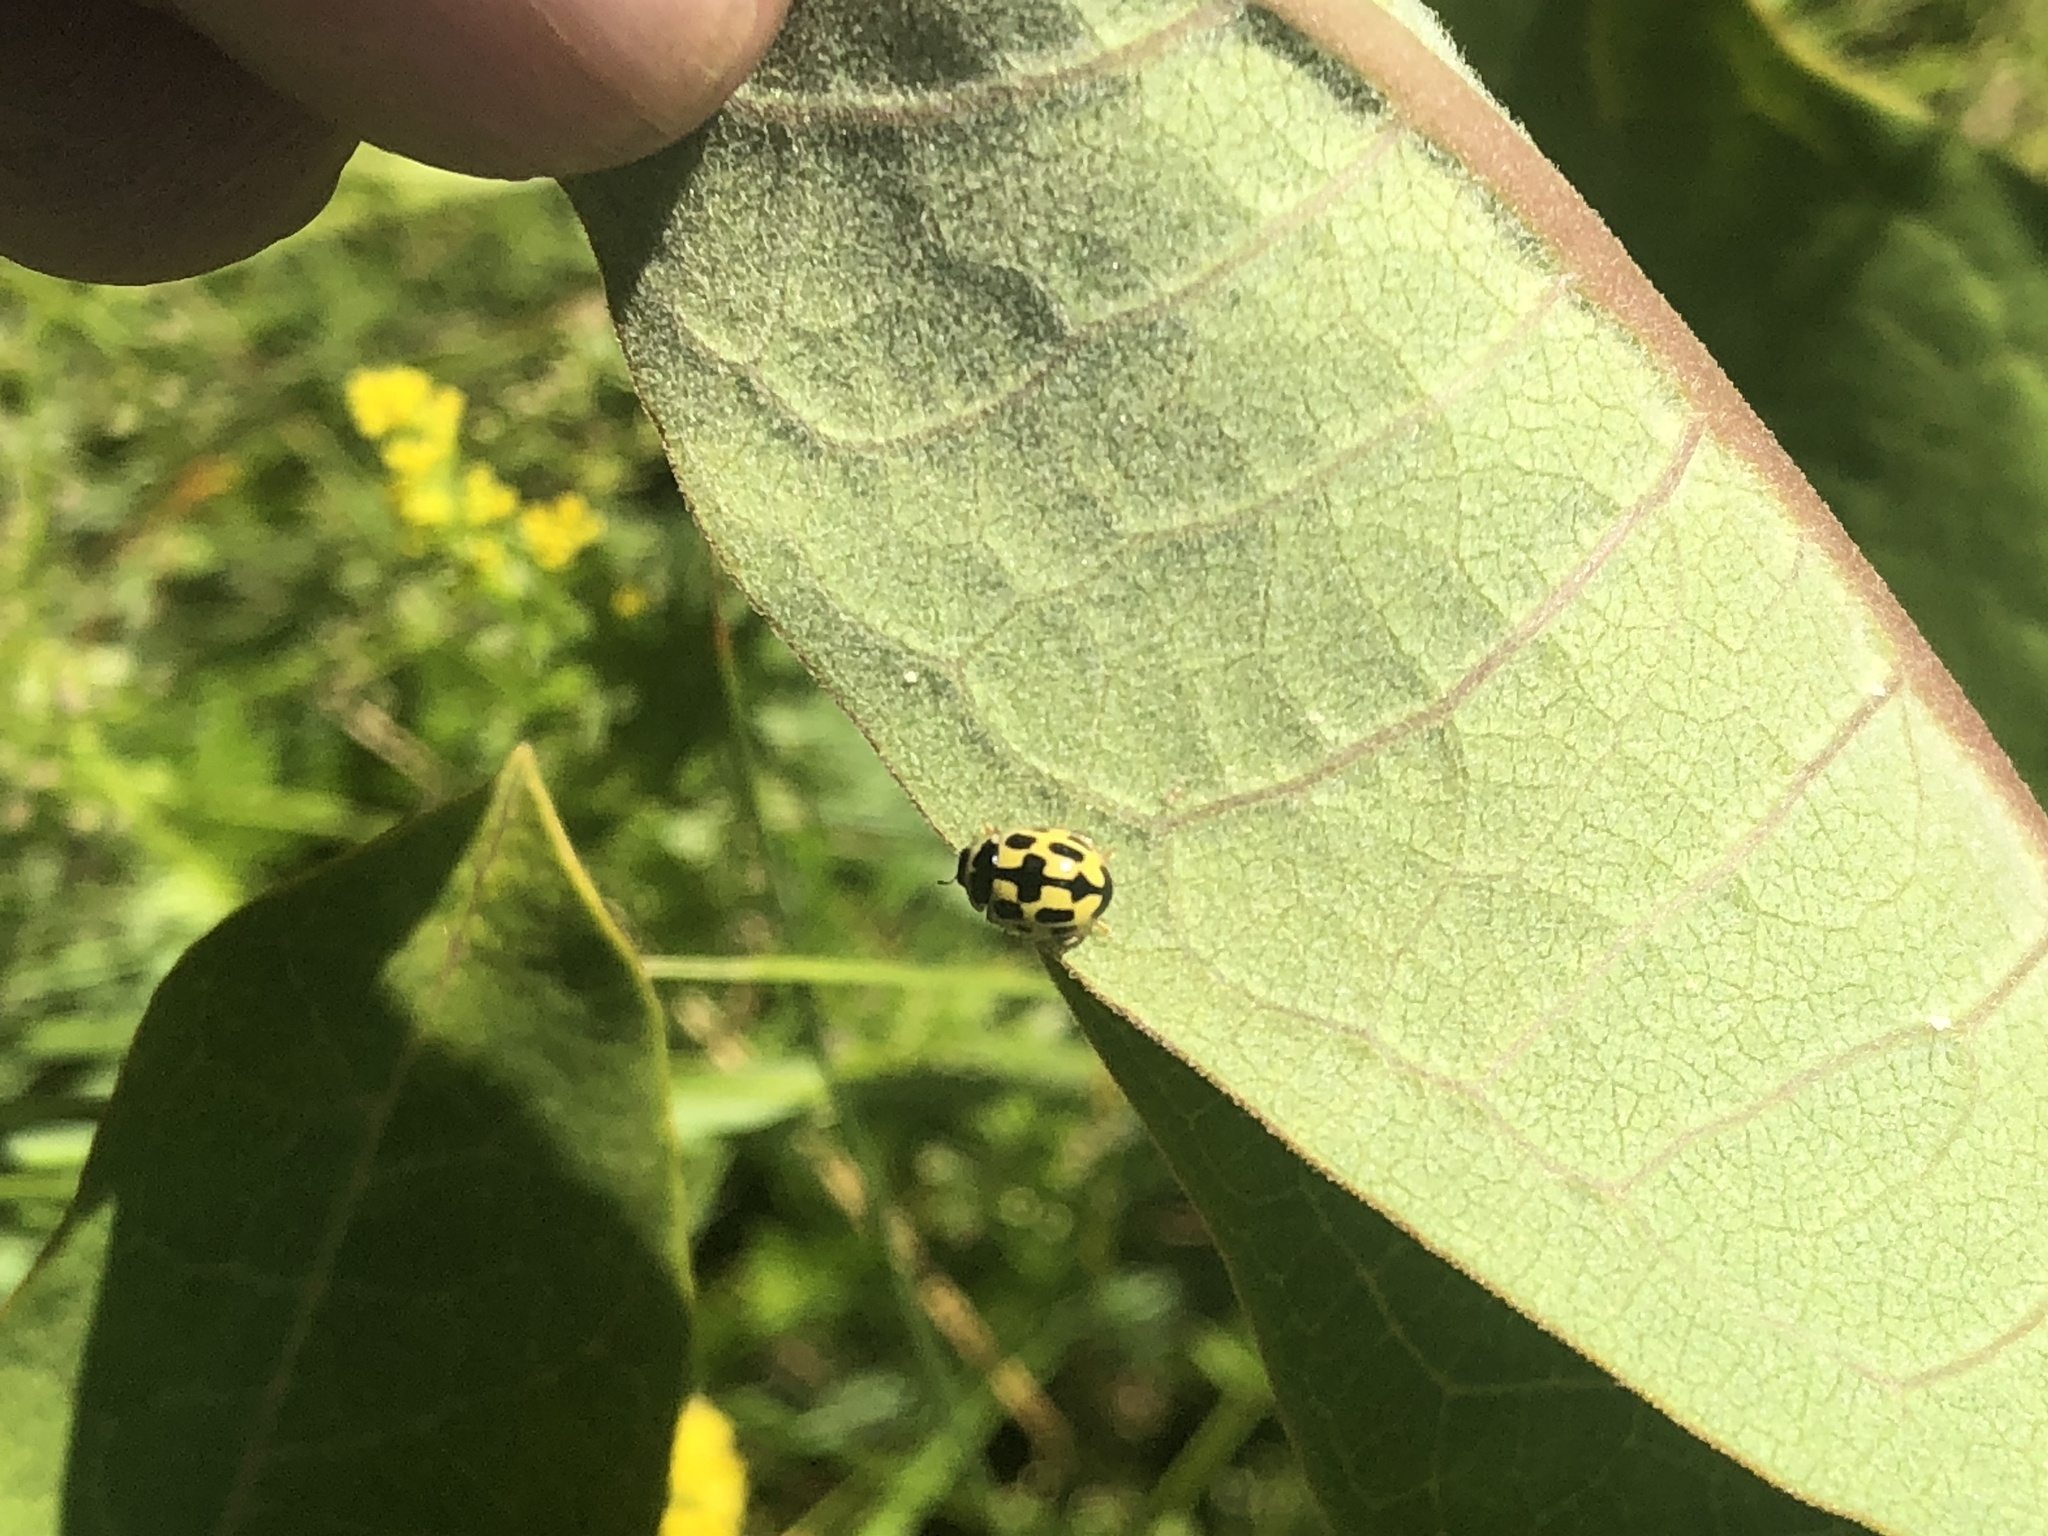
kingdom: Animalia
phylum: Arthropoda
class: Insecta
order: Coleoptera
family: Coccinellidae
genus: Propylaea
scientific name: Propylaea quatuordecimpunctata
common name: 14-spotted ladybird beetle
